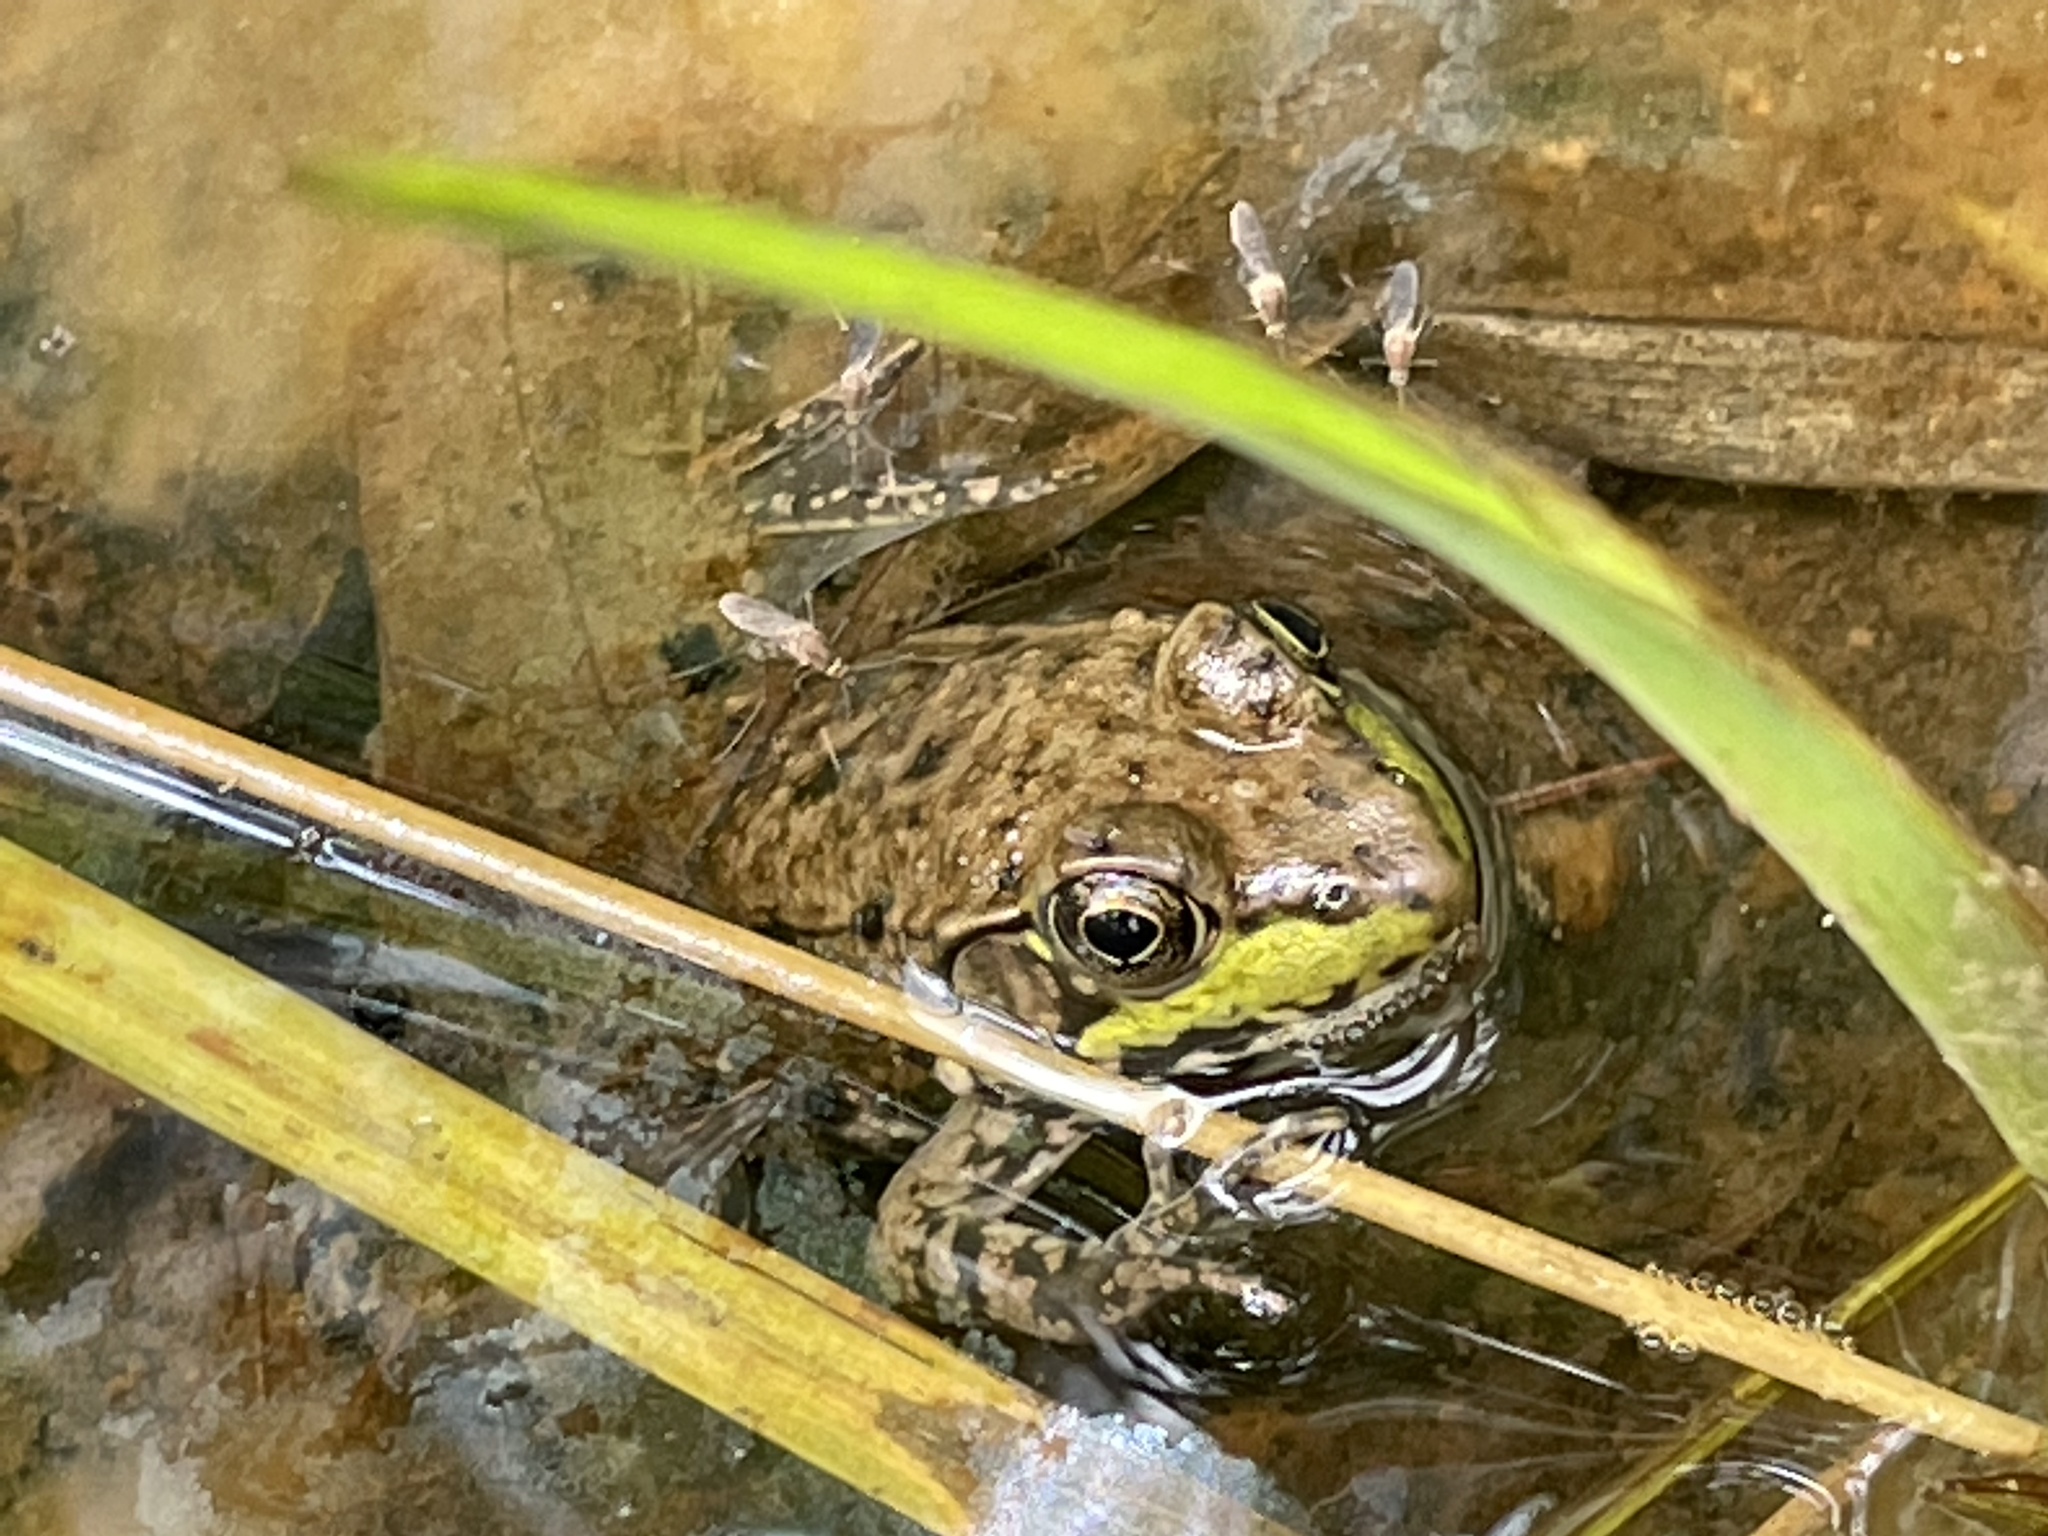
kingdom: Animalia
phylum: Chordata
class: Amphibia
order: Anura
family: Ranidae
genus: Lithobates
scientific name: Lithobates clamitans
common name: Green frog
